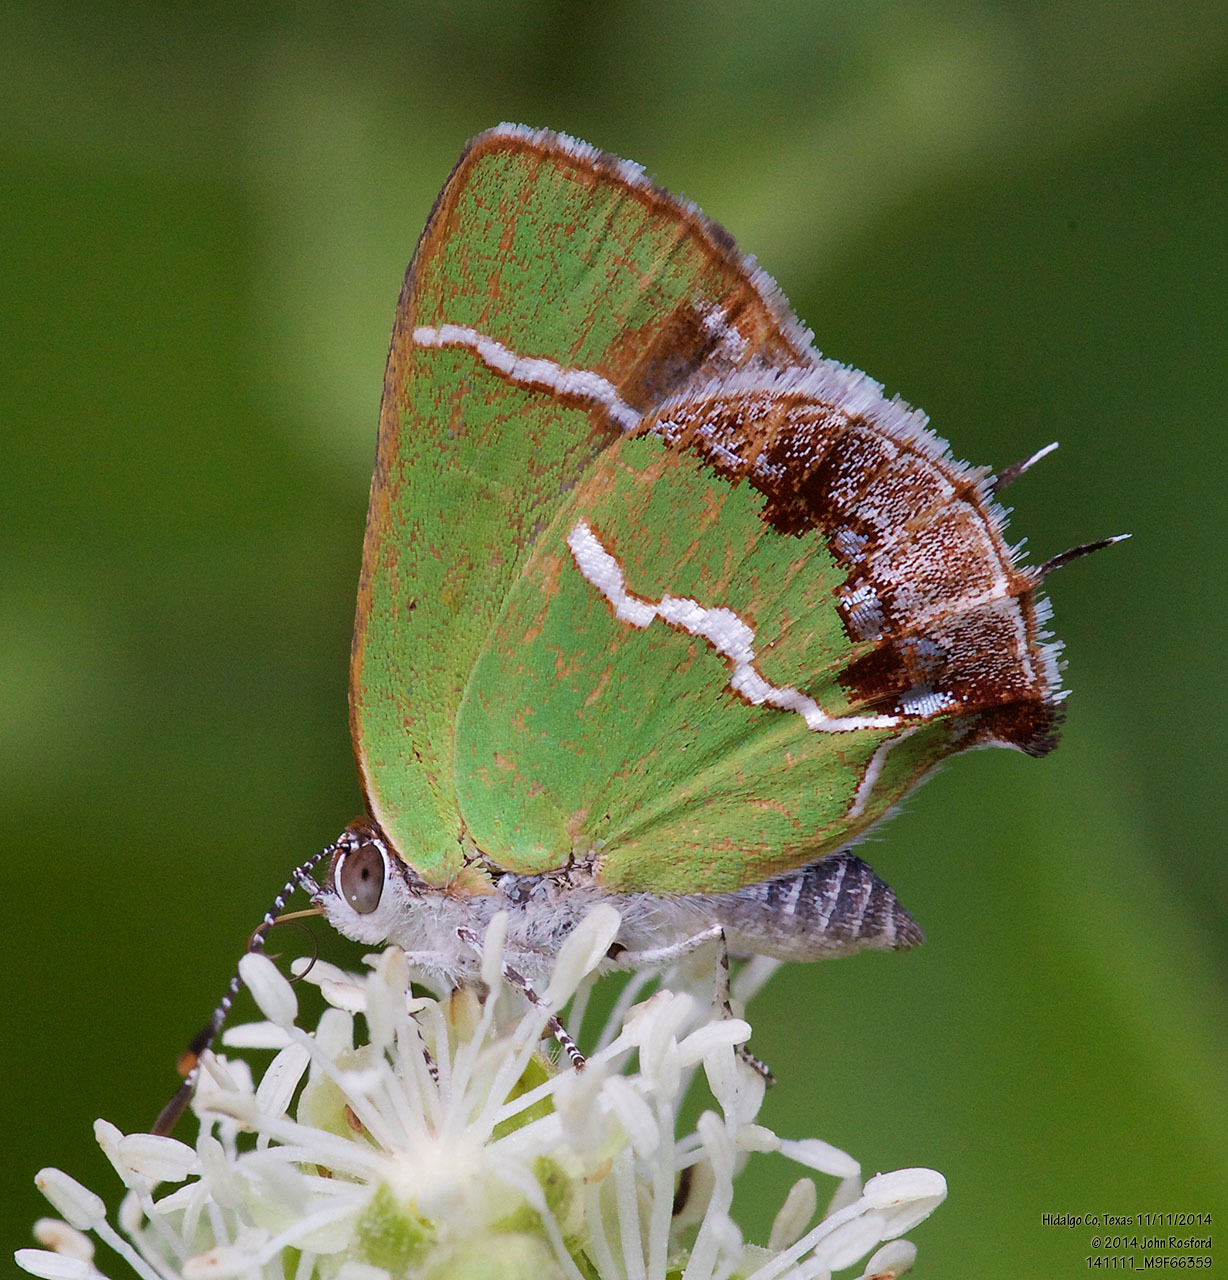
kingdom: Animalia
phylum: Arthropoda
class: Insecta
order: Lepidoptera
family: Lycaenidae
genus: Chlorostrymon
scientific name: Chlorostrymon simaethis
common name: Silver-banded hairstreak
